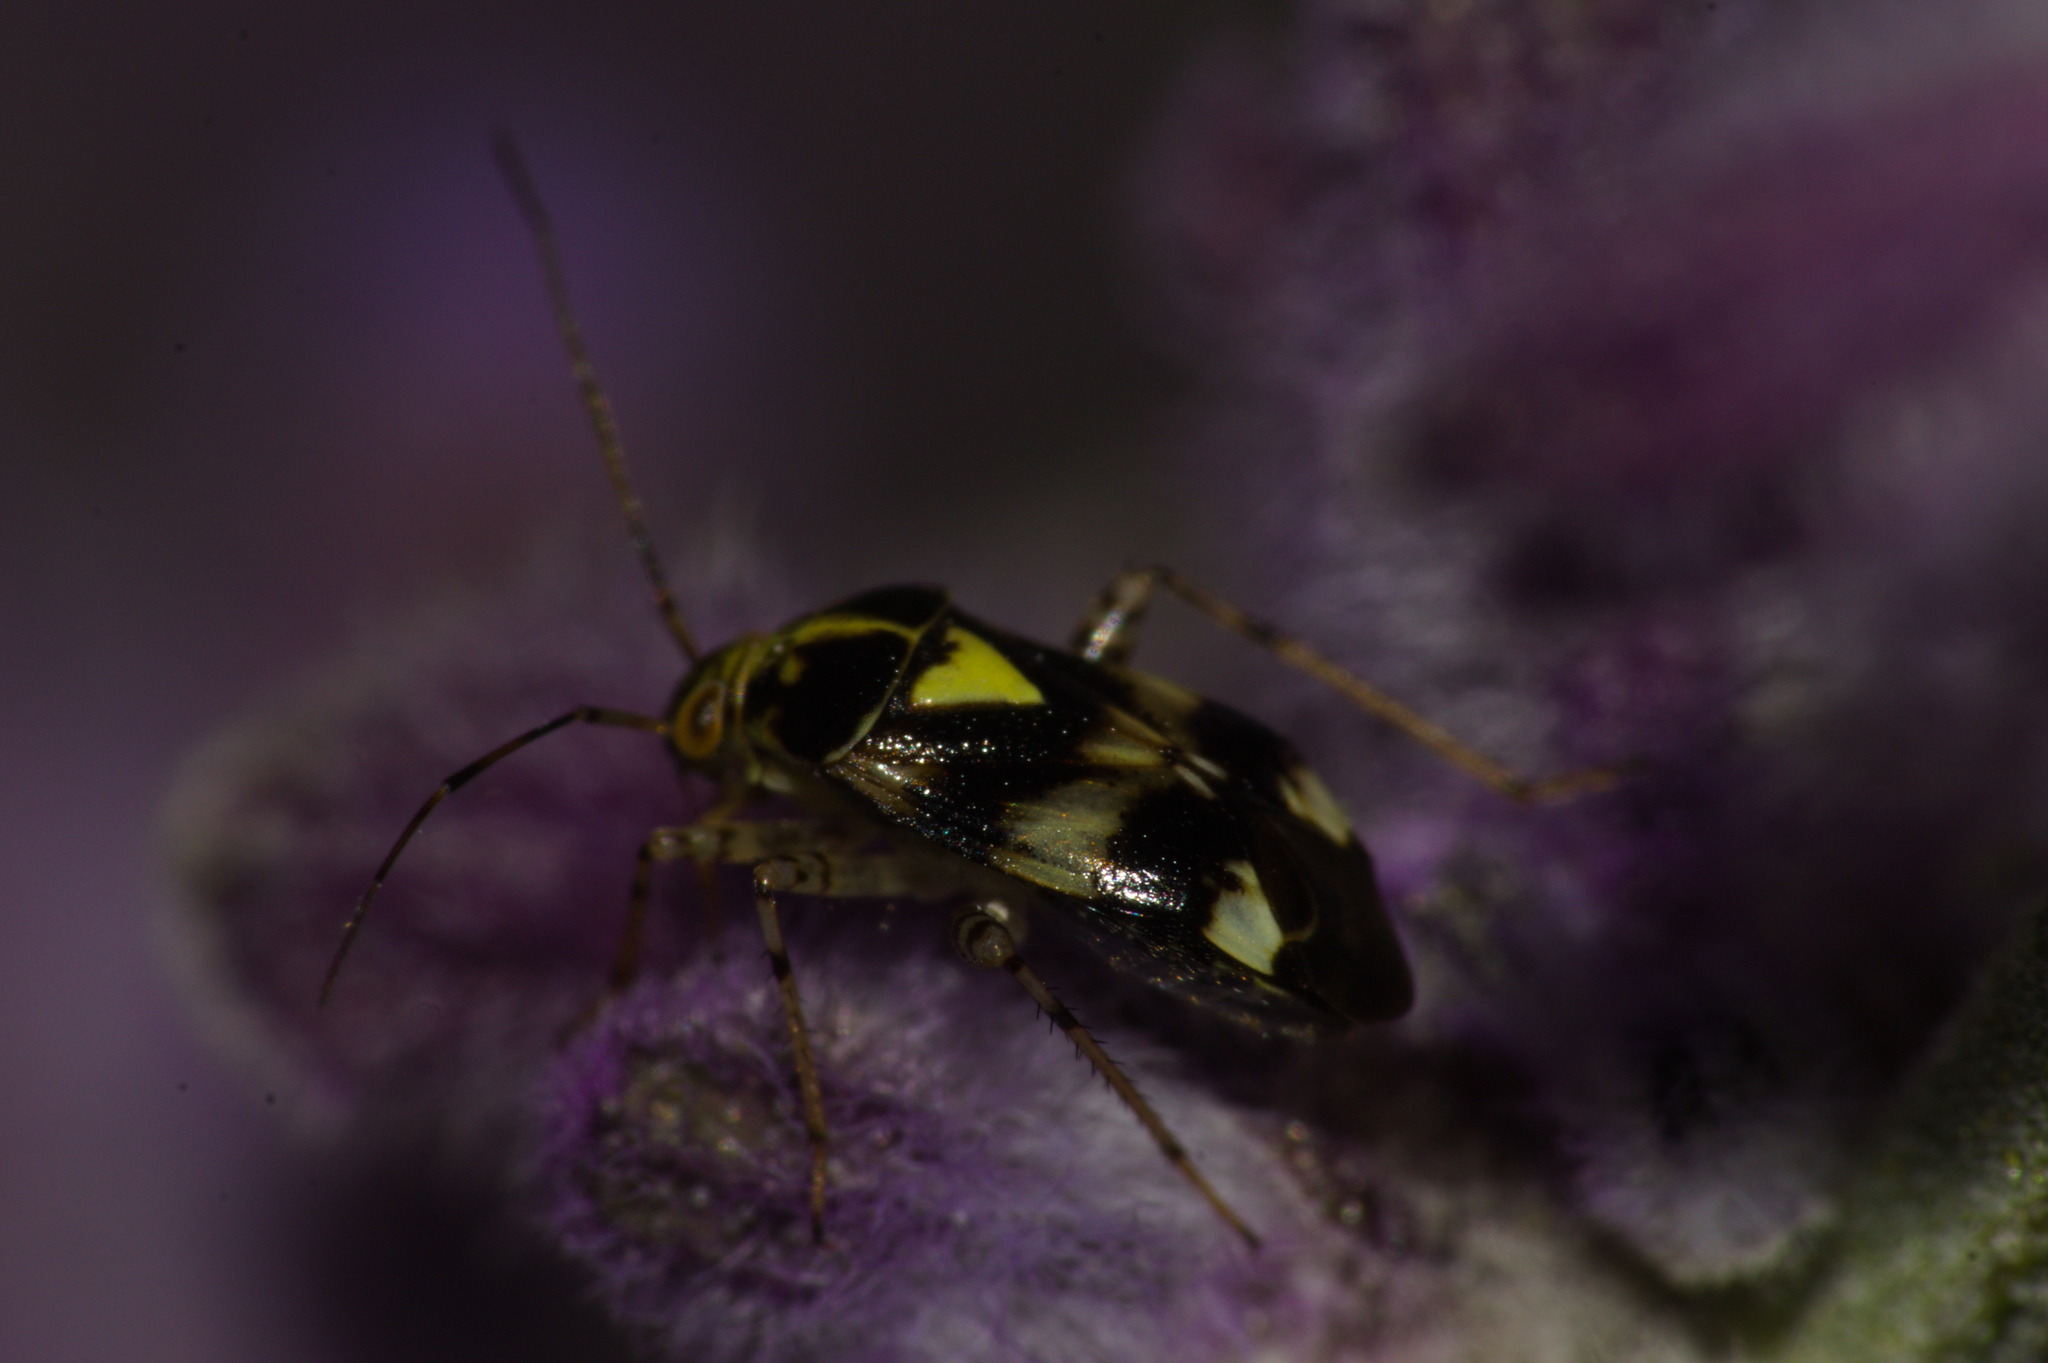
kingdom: Animalia
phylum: Arthropoda
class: Insecta
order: Hemiptera
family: Miridae
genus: Liocoris
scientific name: Liocoris tripustulatus
